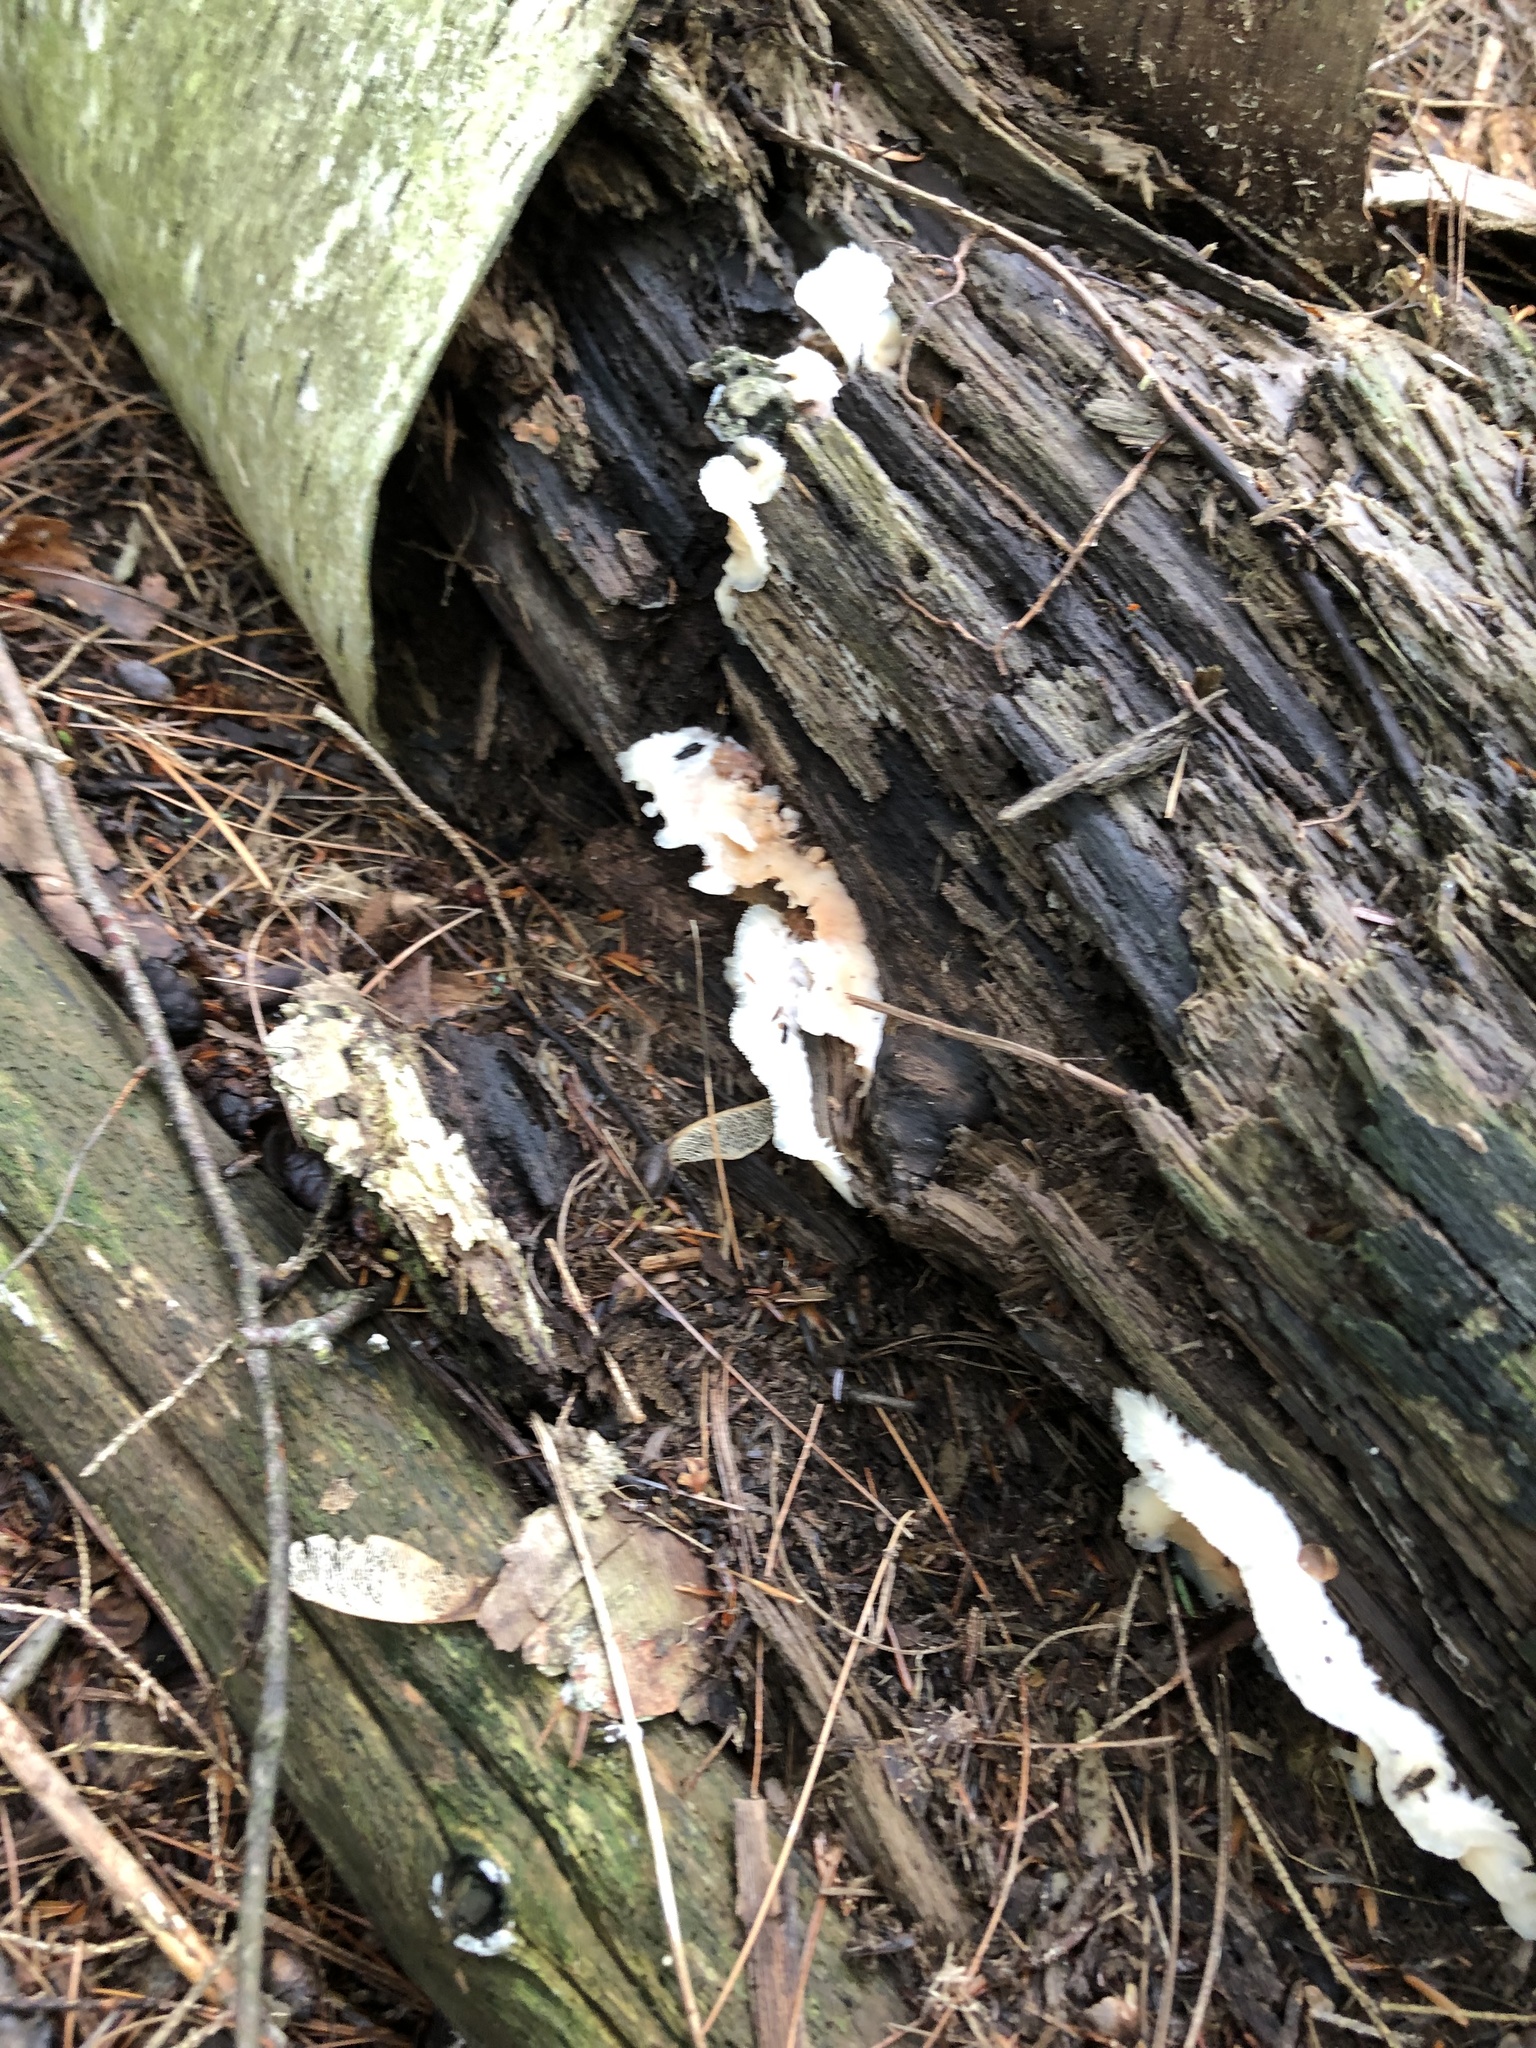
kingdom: Fungi
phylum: Basidiomycota
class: Agaricomycetes
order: Polyporales
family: Meruliaceae
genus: Phlebia
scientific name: Phlebia tremellosa
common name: Jelly rot
